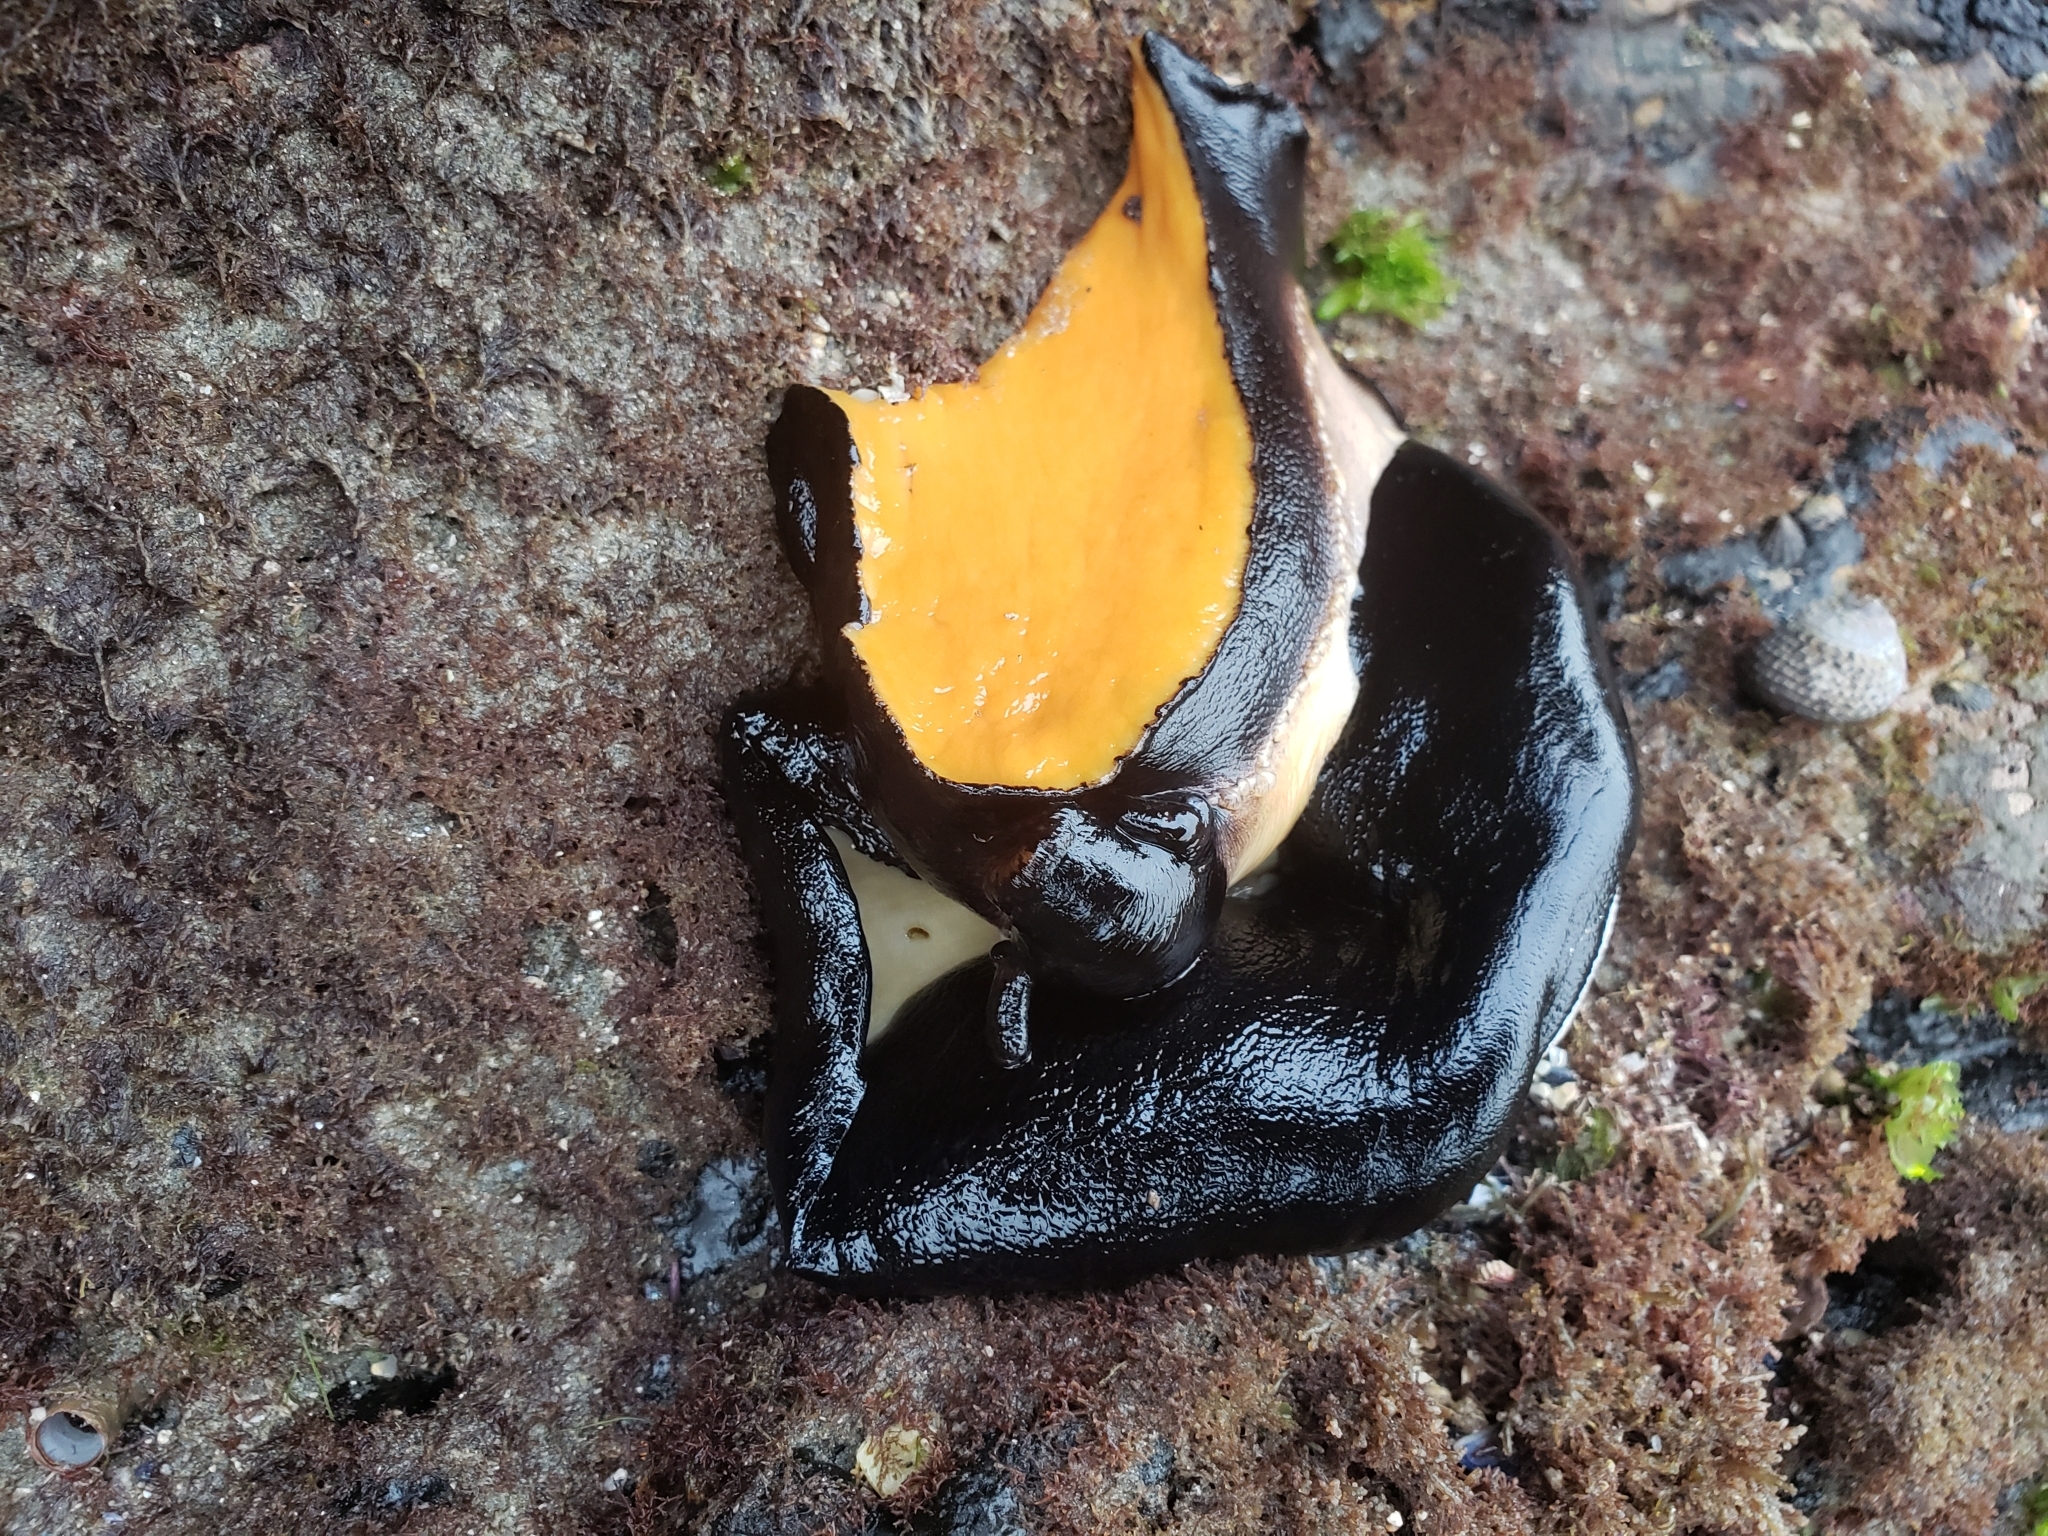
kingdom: Animalia
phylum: Mollusca
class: Gastropoda
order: Lepetellida
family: Fissurellidae
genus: Megathura
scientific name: Megathura crenulata
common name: Giant keyhole limpet
